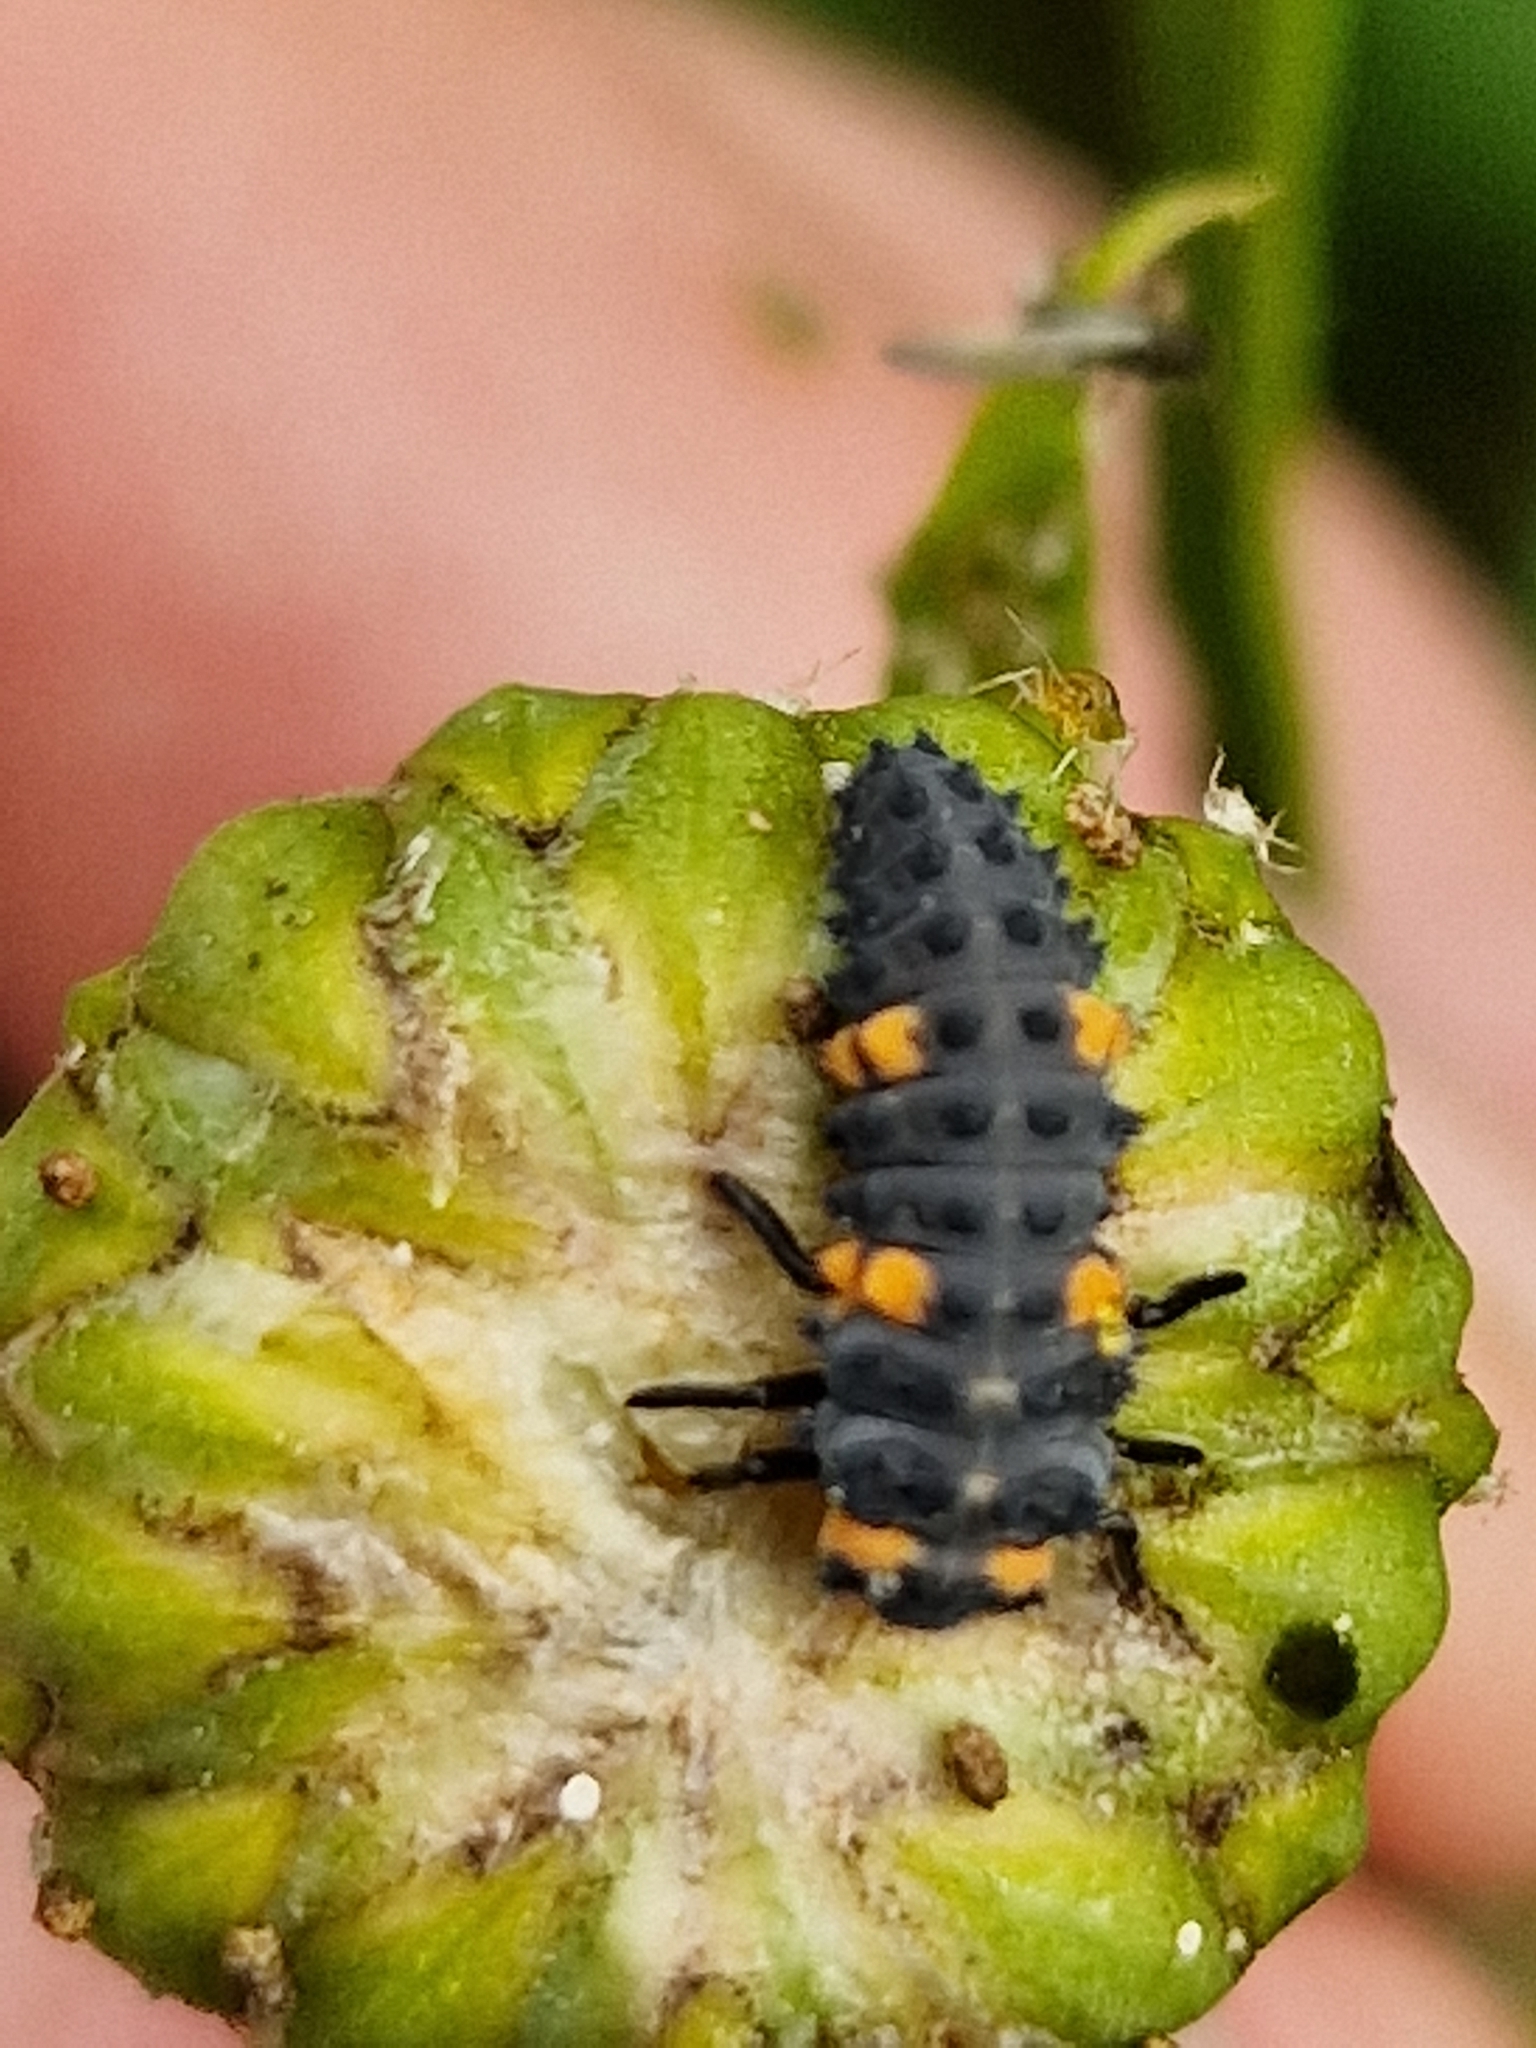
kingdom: Animalia
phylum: Arthropoda
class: Insecta
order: Coleoptera
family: Coccinellidae
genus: Coccinella
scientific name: Coccinella septempunctata
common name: Sevenspotted lady beetle
